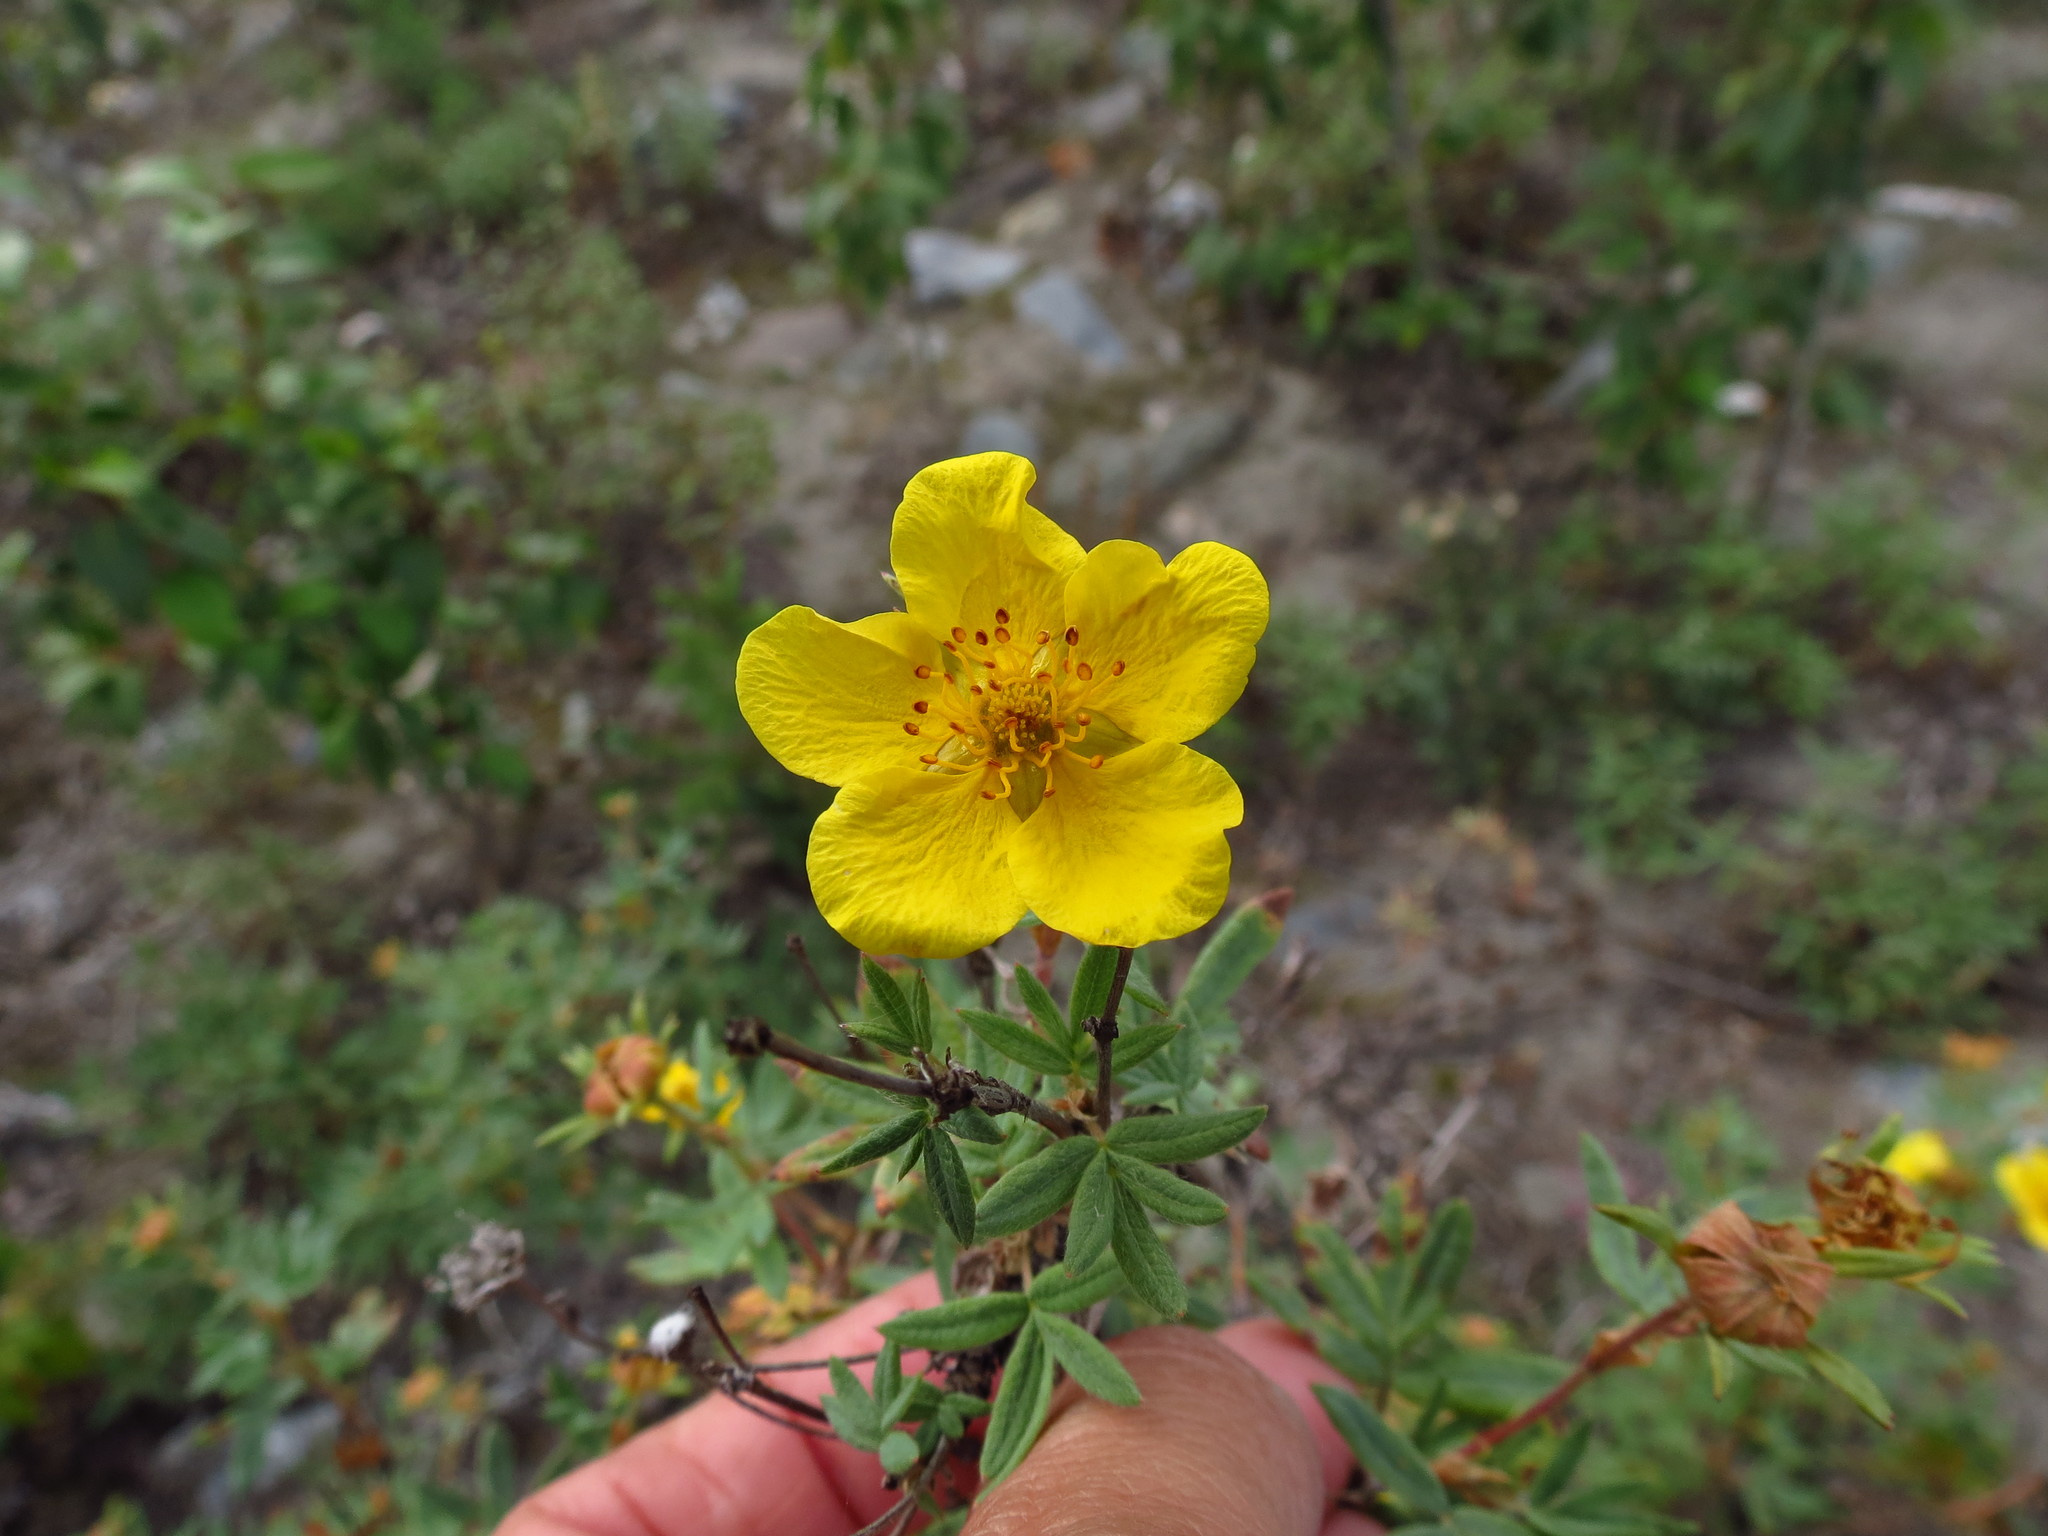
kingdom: Plantae
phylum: Tracheophyta
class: Magnoliopsida
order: Rosales
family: Rosaceae
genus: Dasiphora
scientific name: Dasiphora fruticosa
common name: Shrubby cinquefoil
